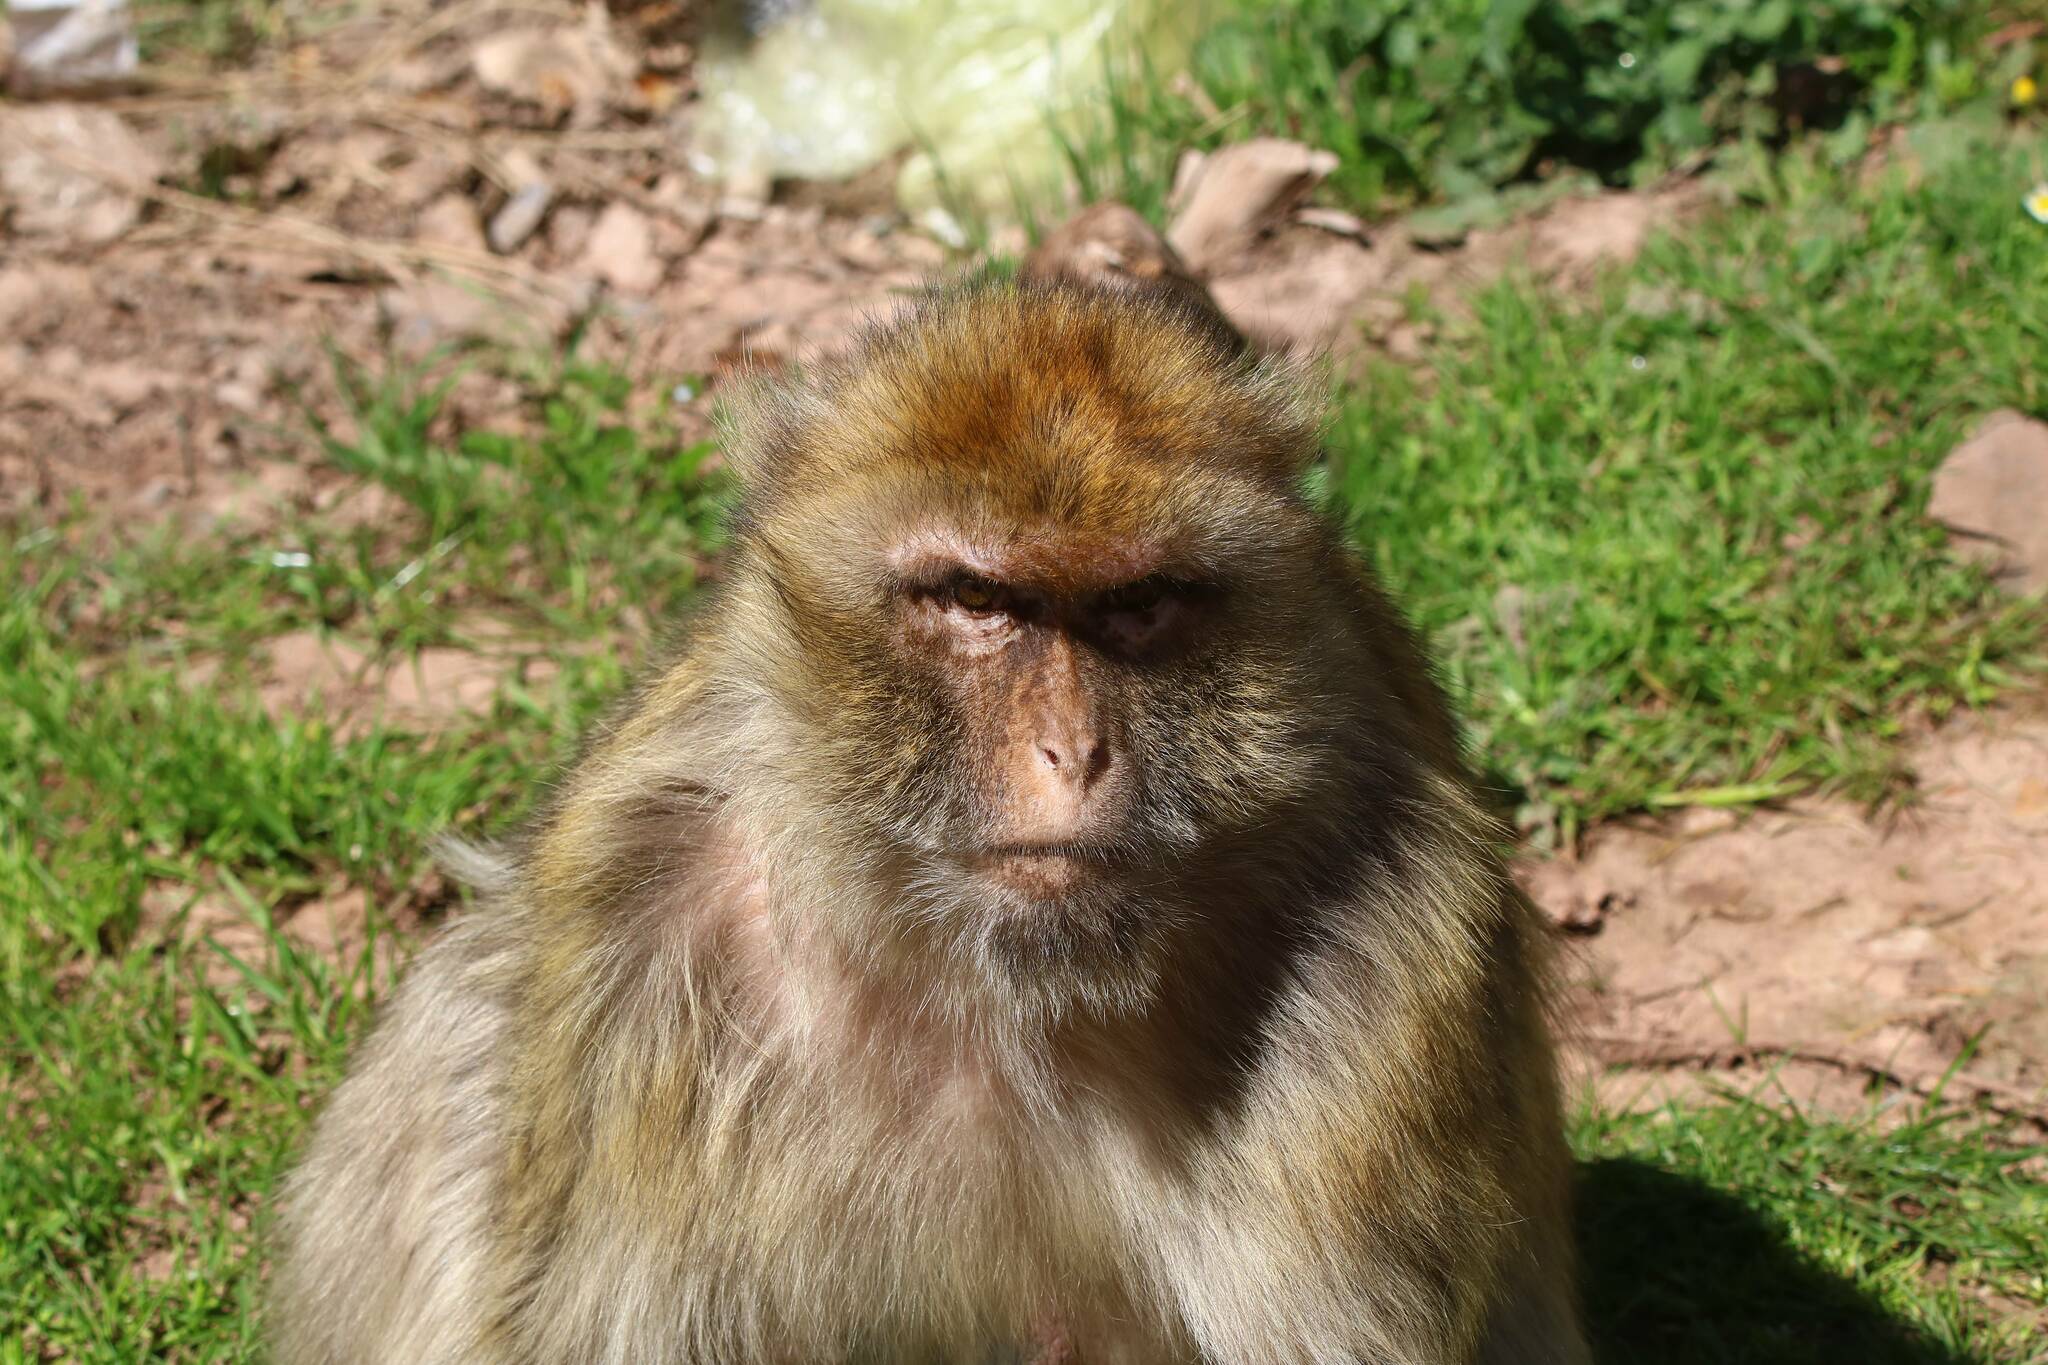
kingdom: Animalia
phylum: Chordata
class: Mammalia
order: Primates
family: Cercopithecidae
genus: Macaca
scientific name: Macaca sylvanus
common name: Barbary macaque
